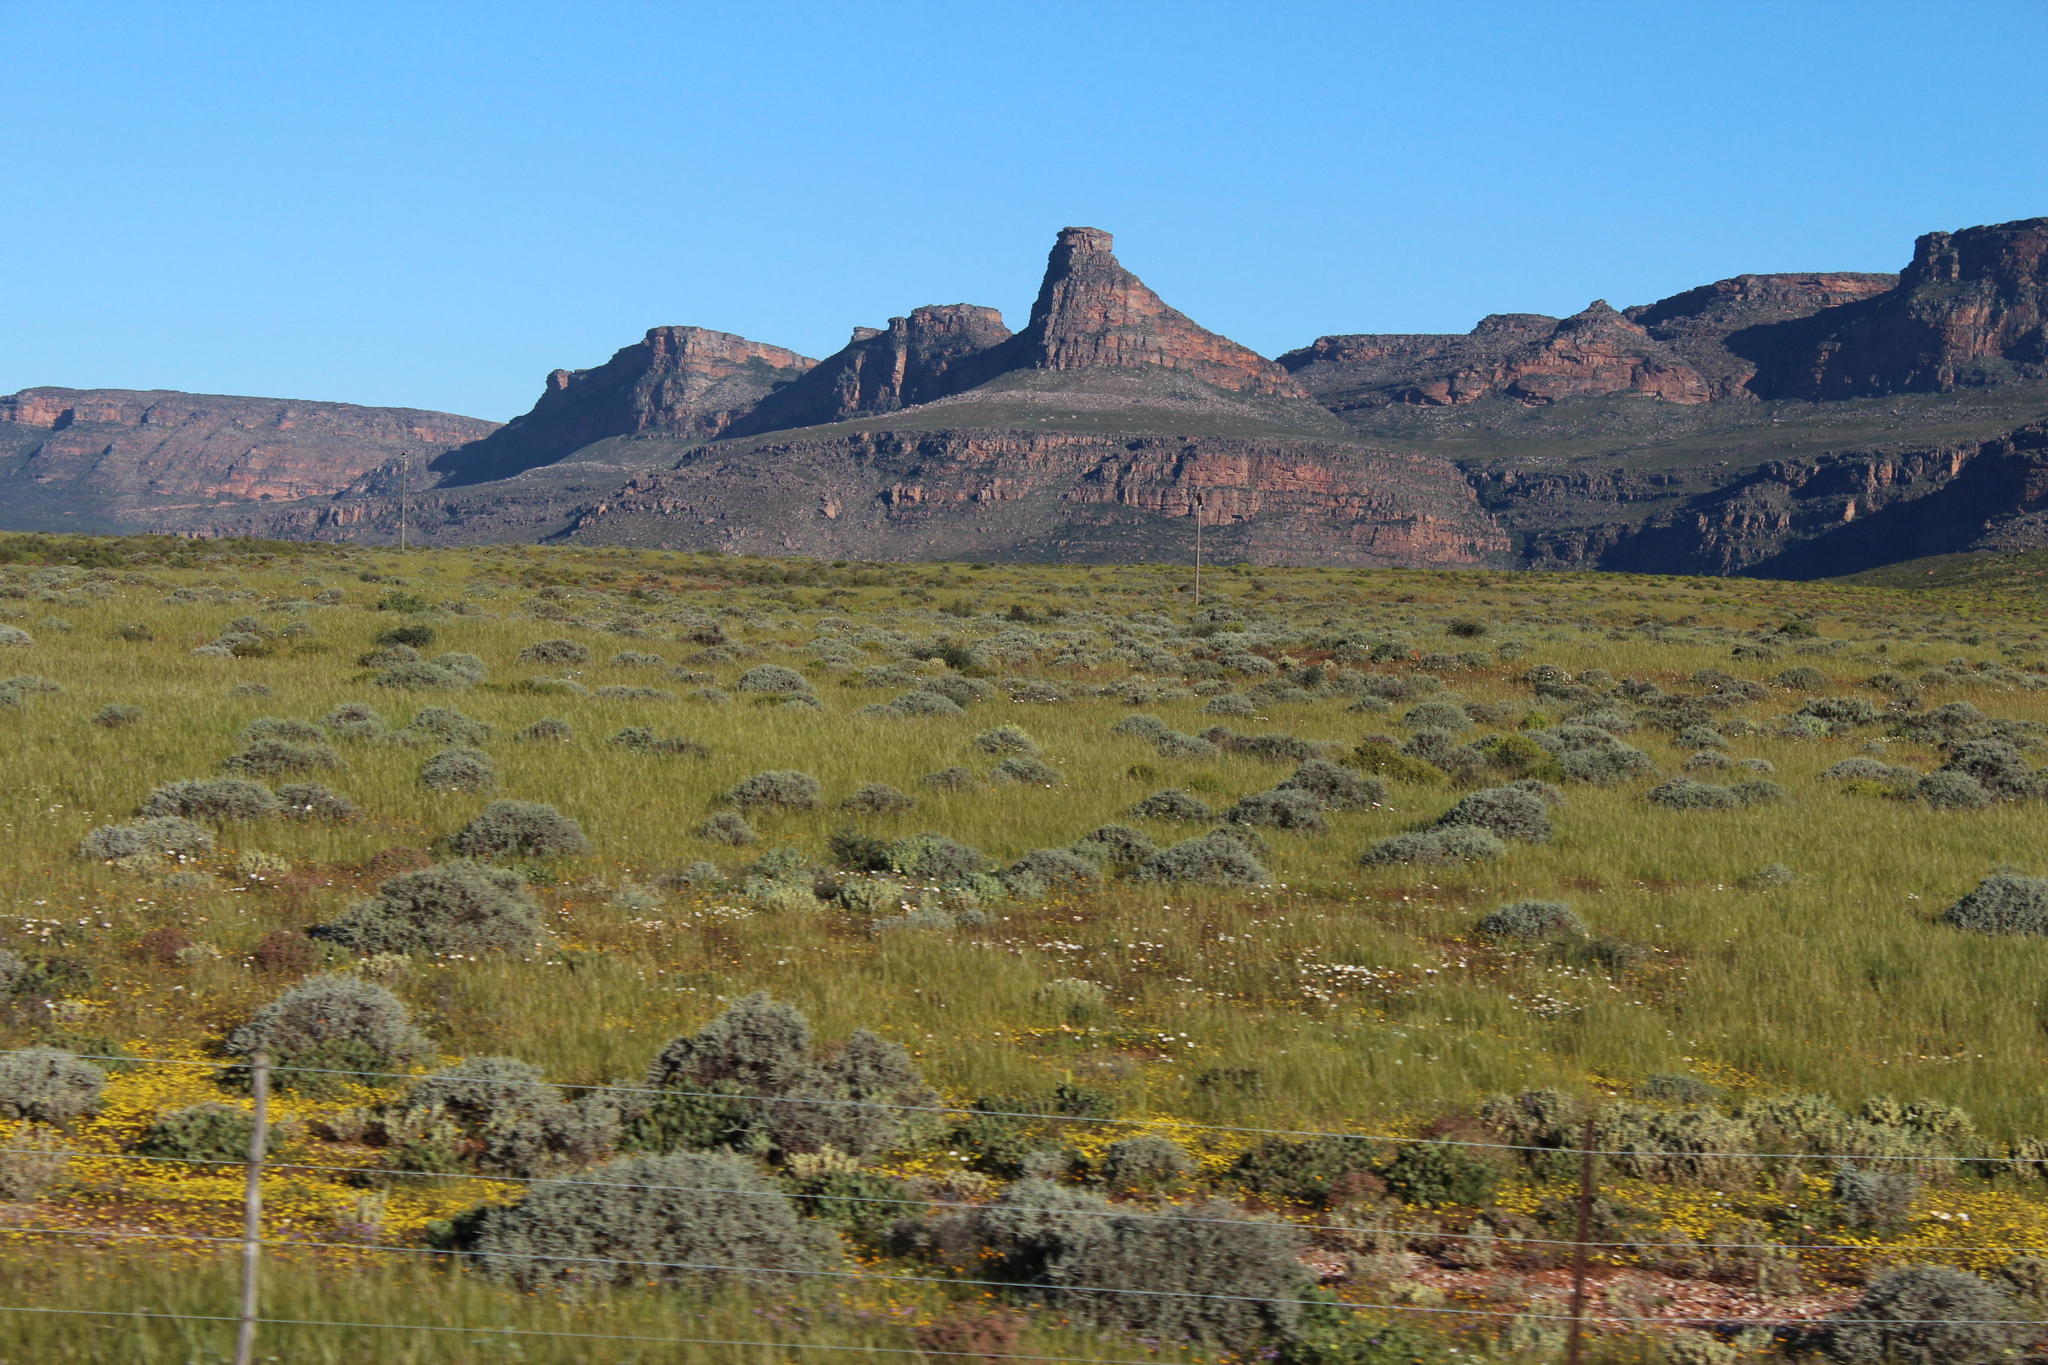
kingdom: Plantae
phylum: Tracheophyta
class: Liliopsida
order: Poales
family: Poaceae
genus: Stipellula
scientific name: Stipellula capensis
